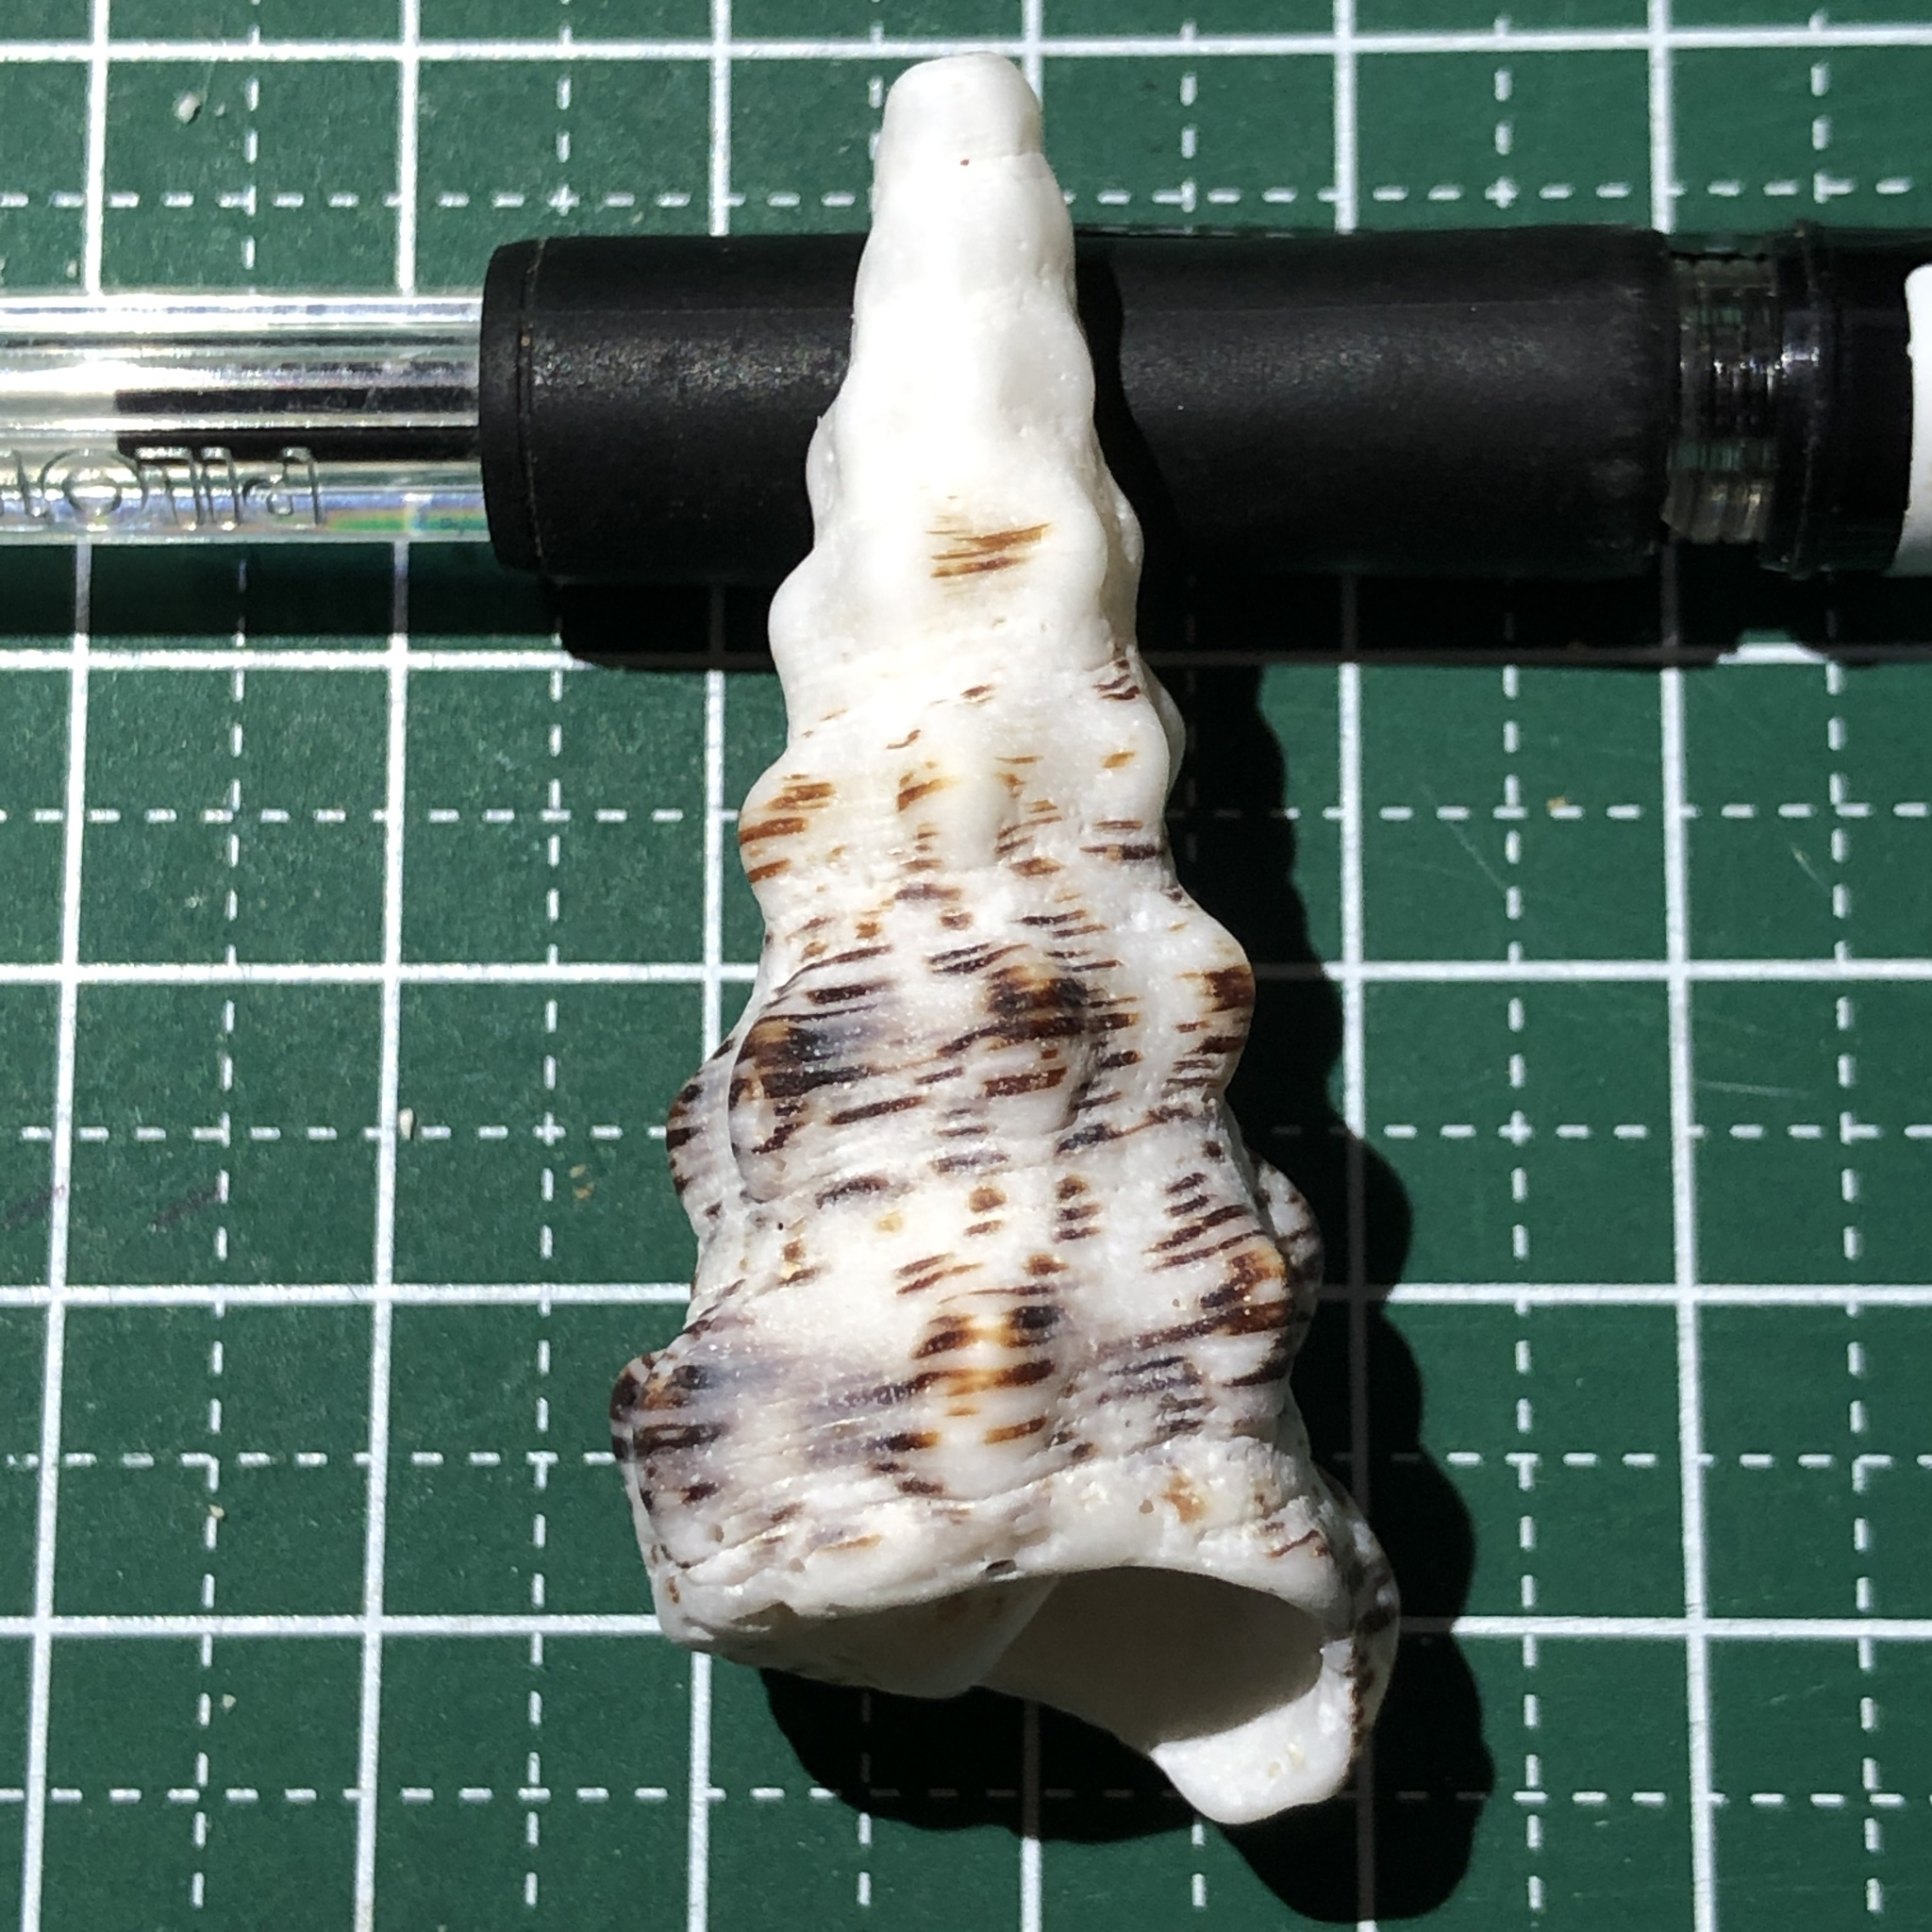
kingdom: Animalia
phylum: Mollusca
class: Gastropoda
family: Cerithiidae
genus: Cerithium
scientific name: Cerithium nodulosum
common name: Nadelschnecke giant knobbed cerith
